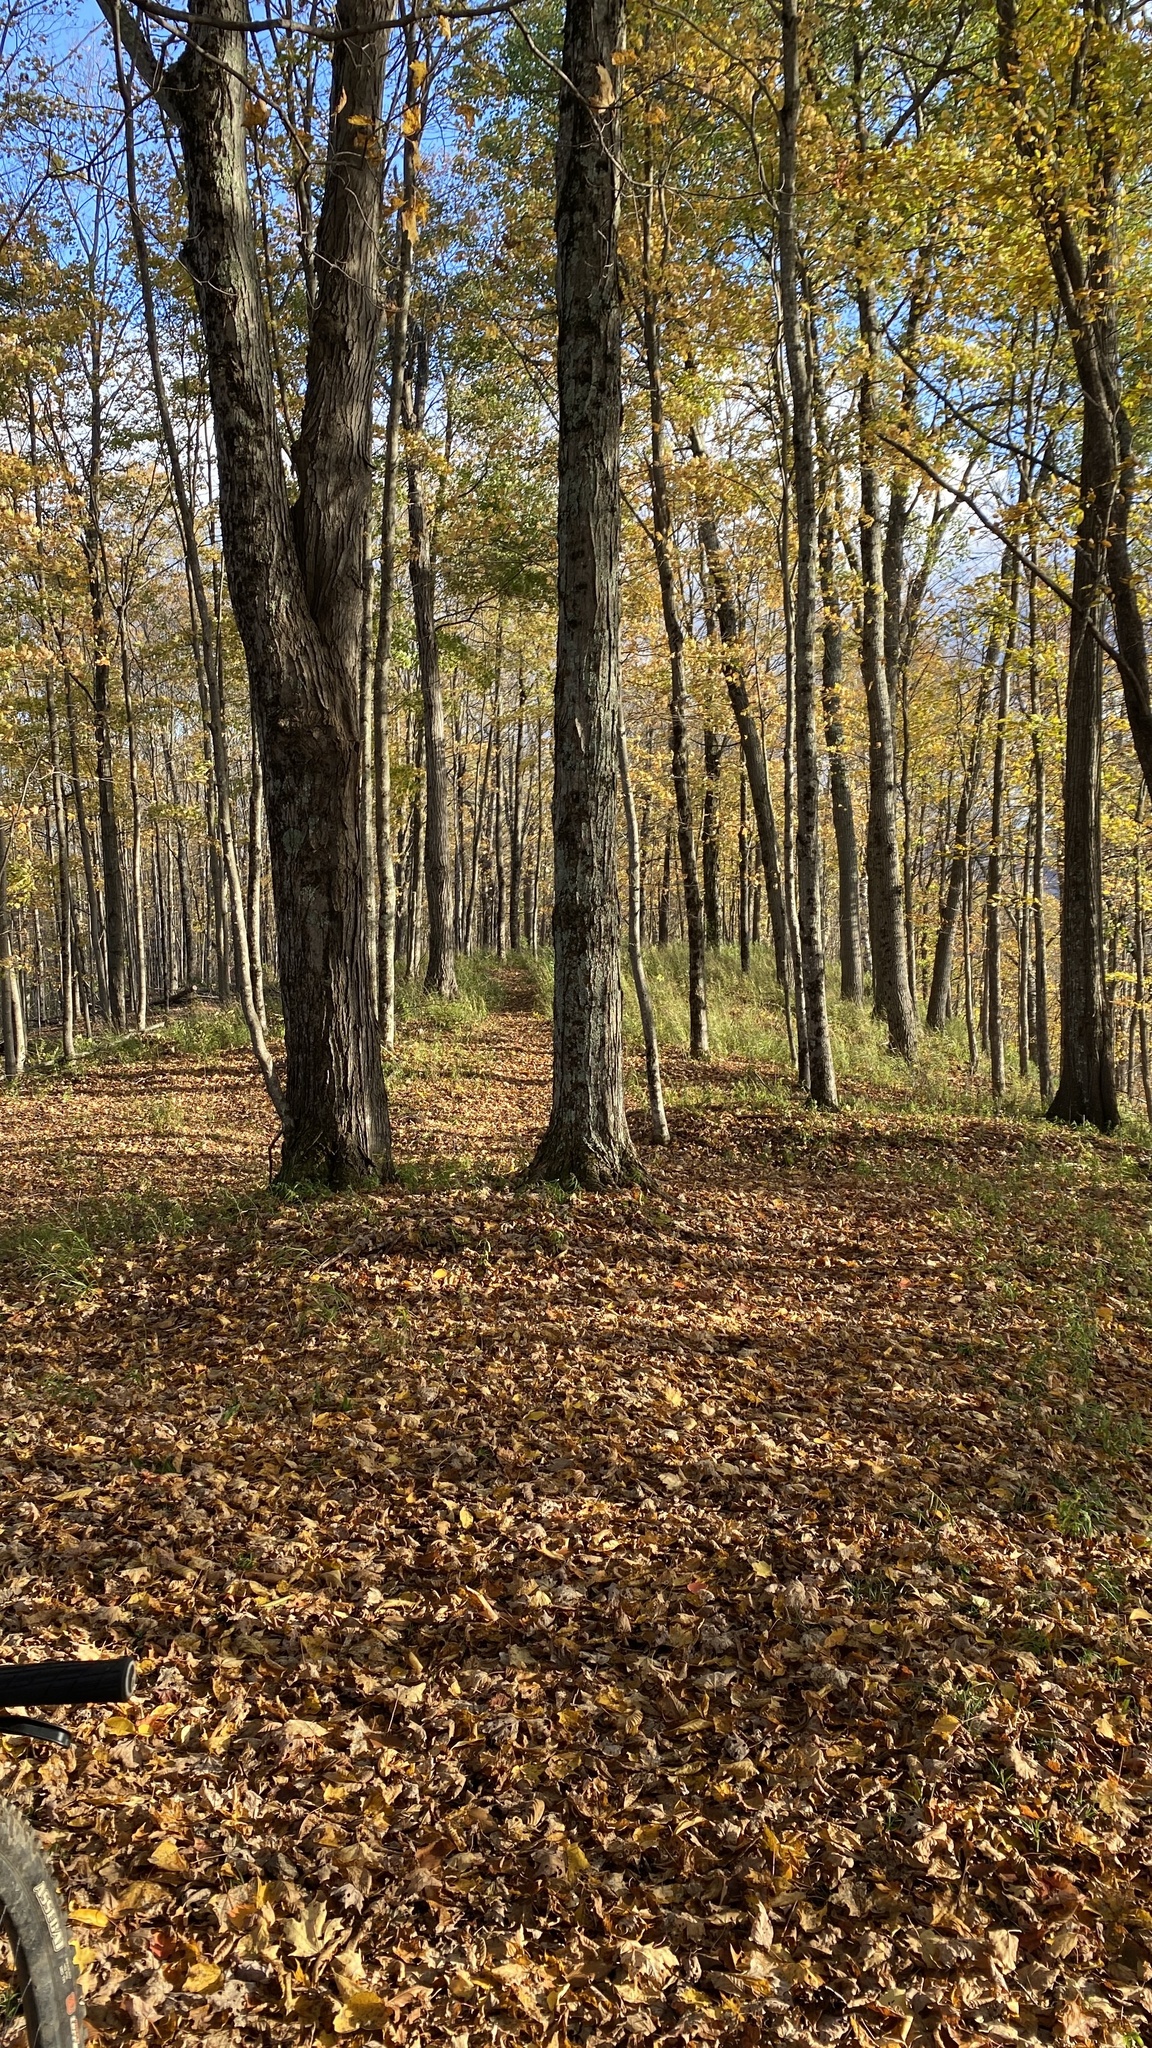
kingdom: Plantae
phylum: Tracheophyta
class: Magnoliopsida
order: Sapindales
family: Sapindaceae
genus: Acer
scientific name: Acer saccharum
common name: Sugar maple
